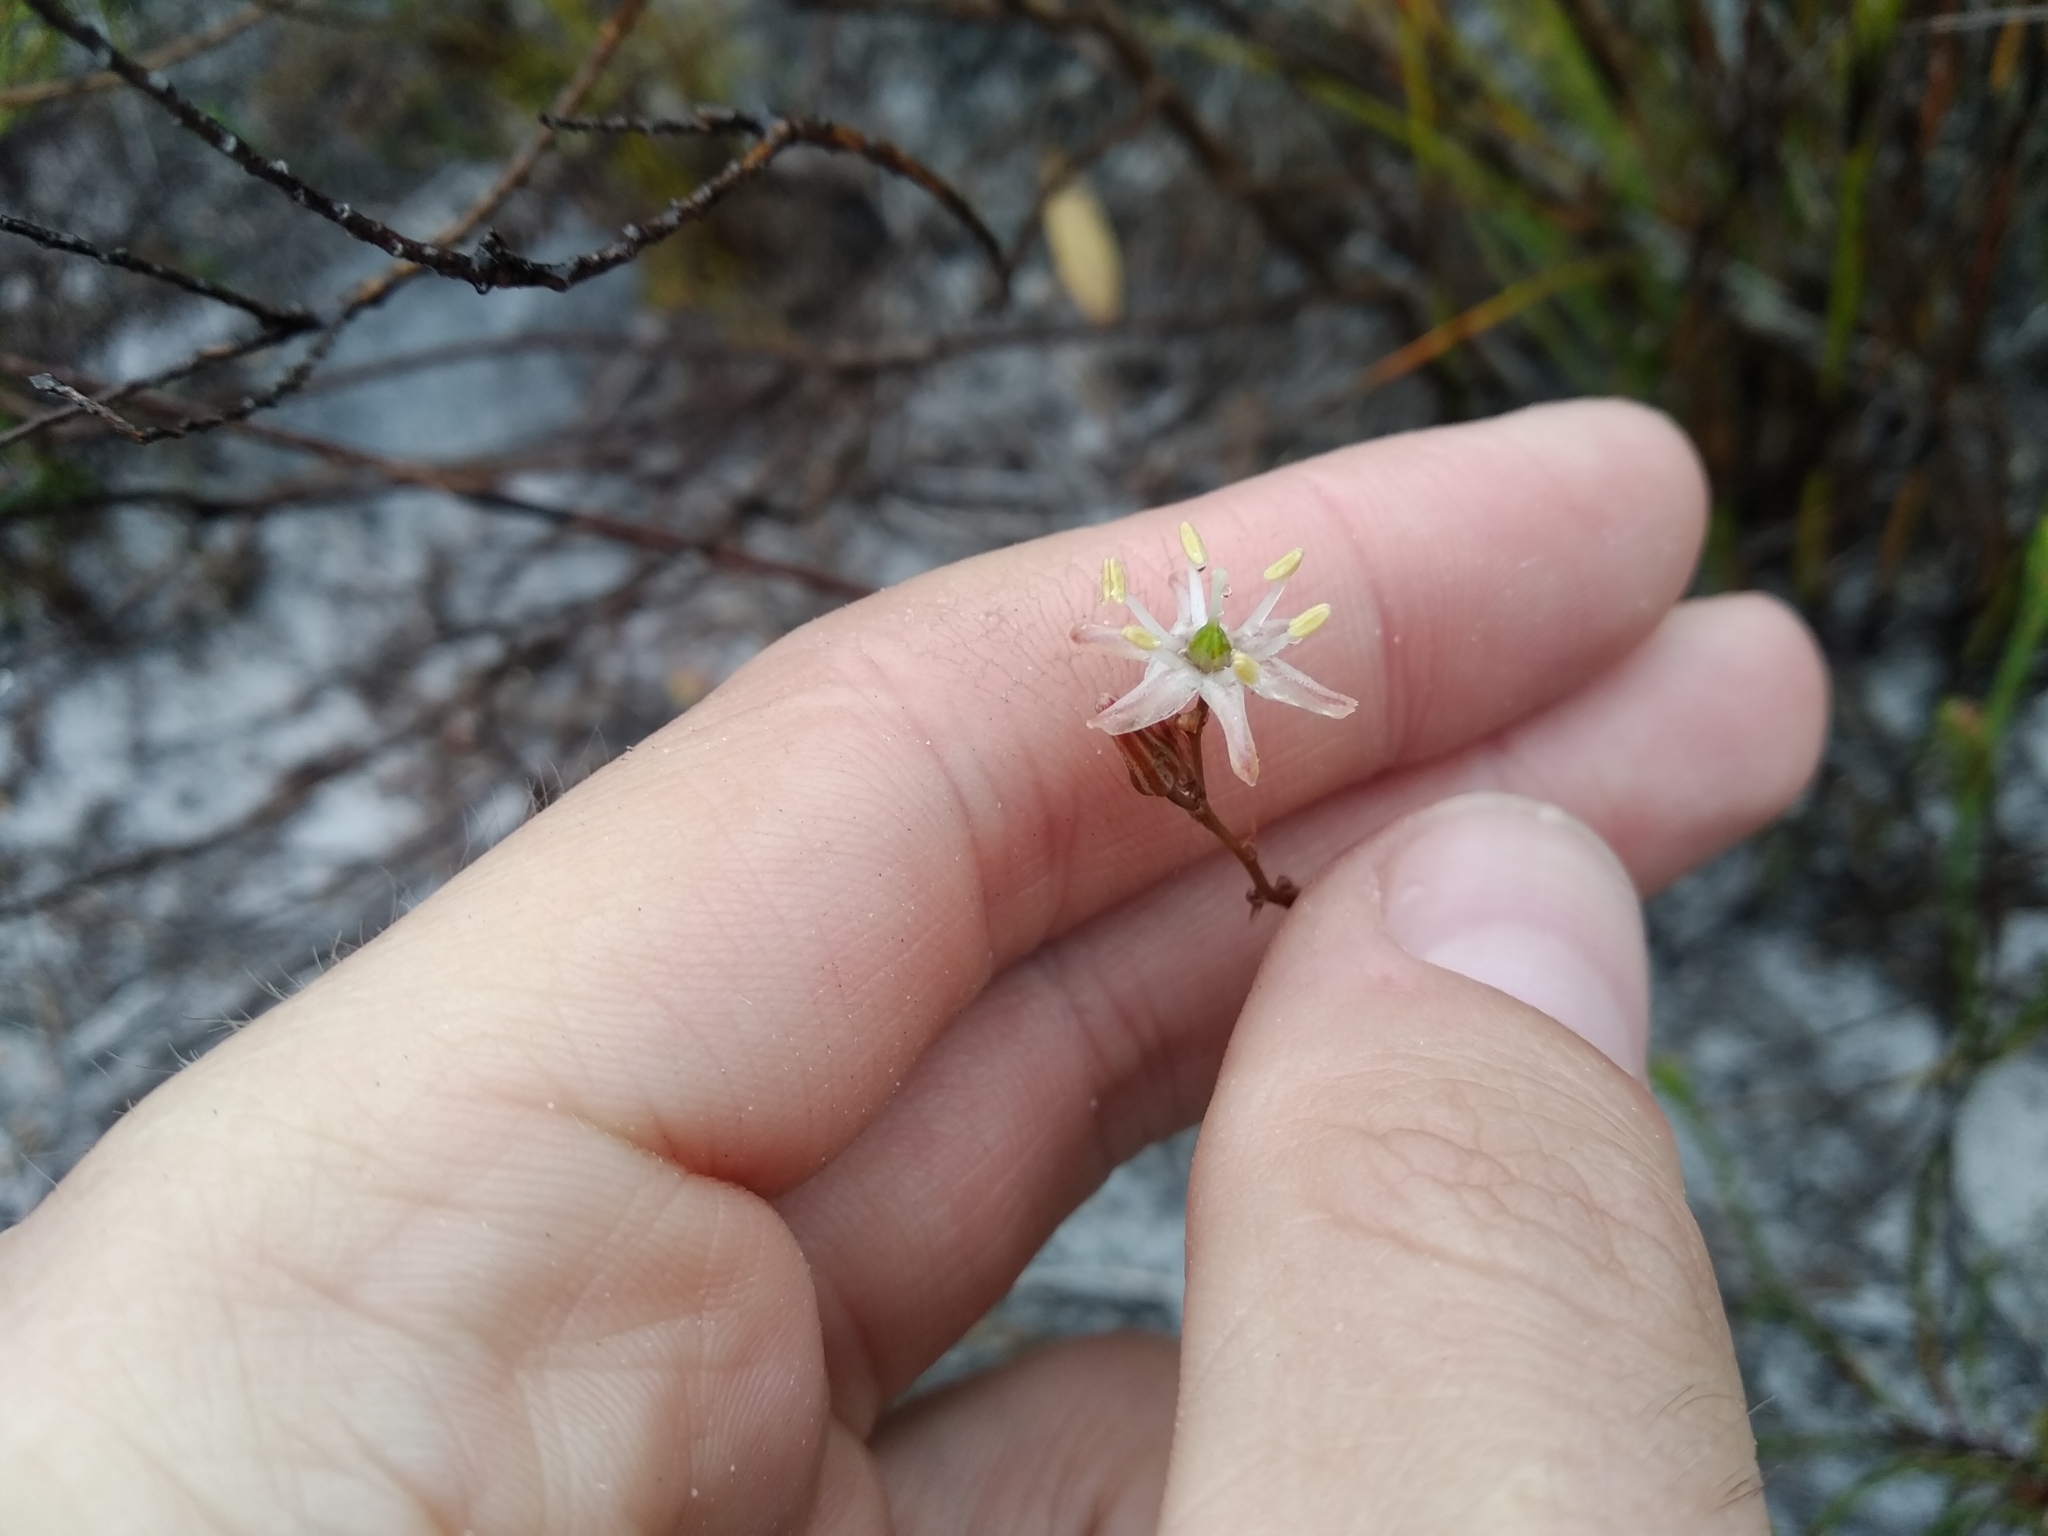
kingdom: Plantae
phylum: Tracheophyta
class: Liliopsida
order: Asparagales
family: Asparagaceae
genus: Drimia
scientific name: Drimia salteri
